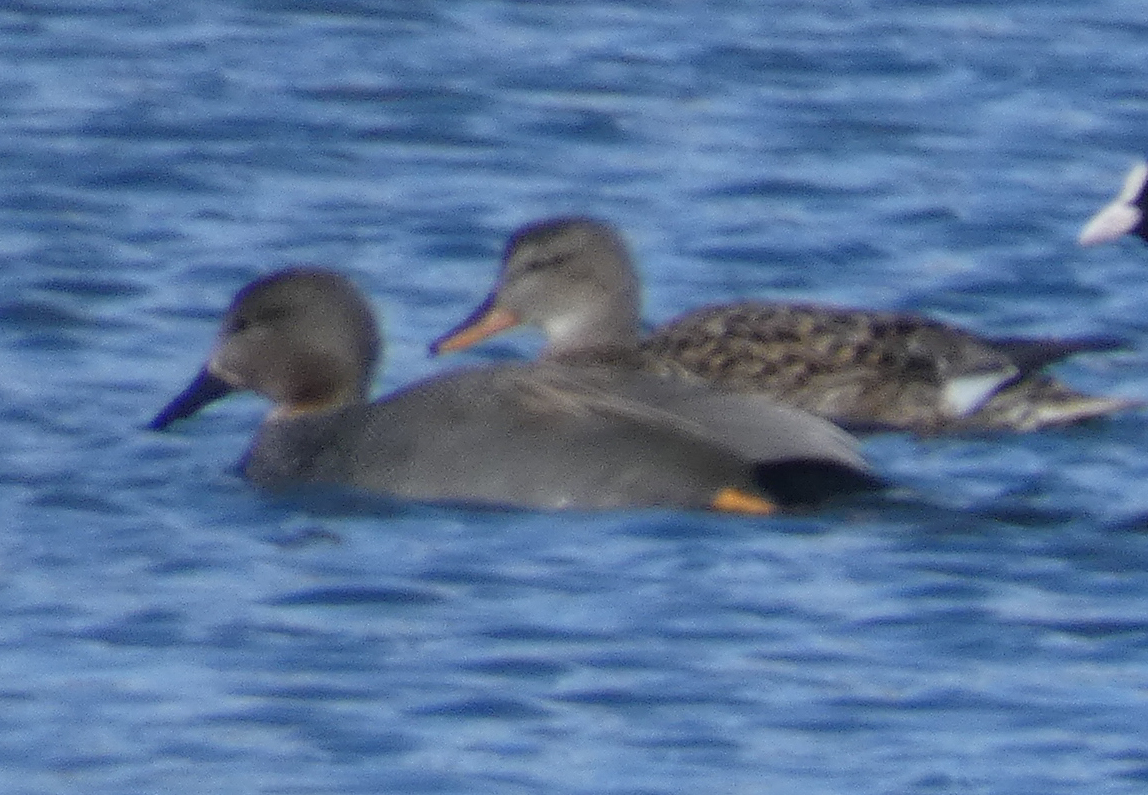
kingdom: Animalia
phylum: Chordata
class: Aves
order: Anseriformes
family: Anatidae
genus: Mareca
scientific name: Mareca strepera
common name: Gadwall
